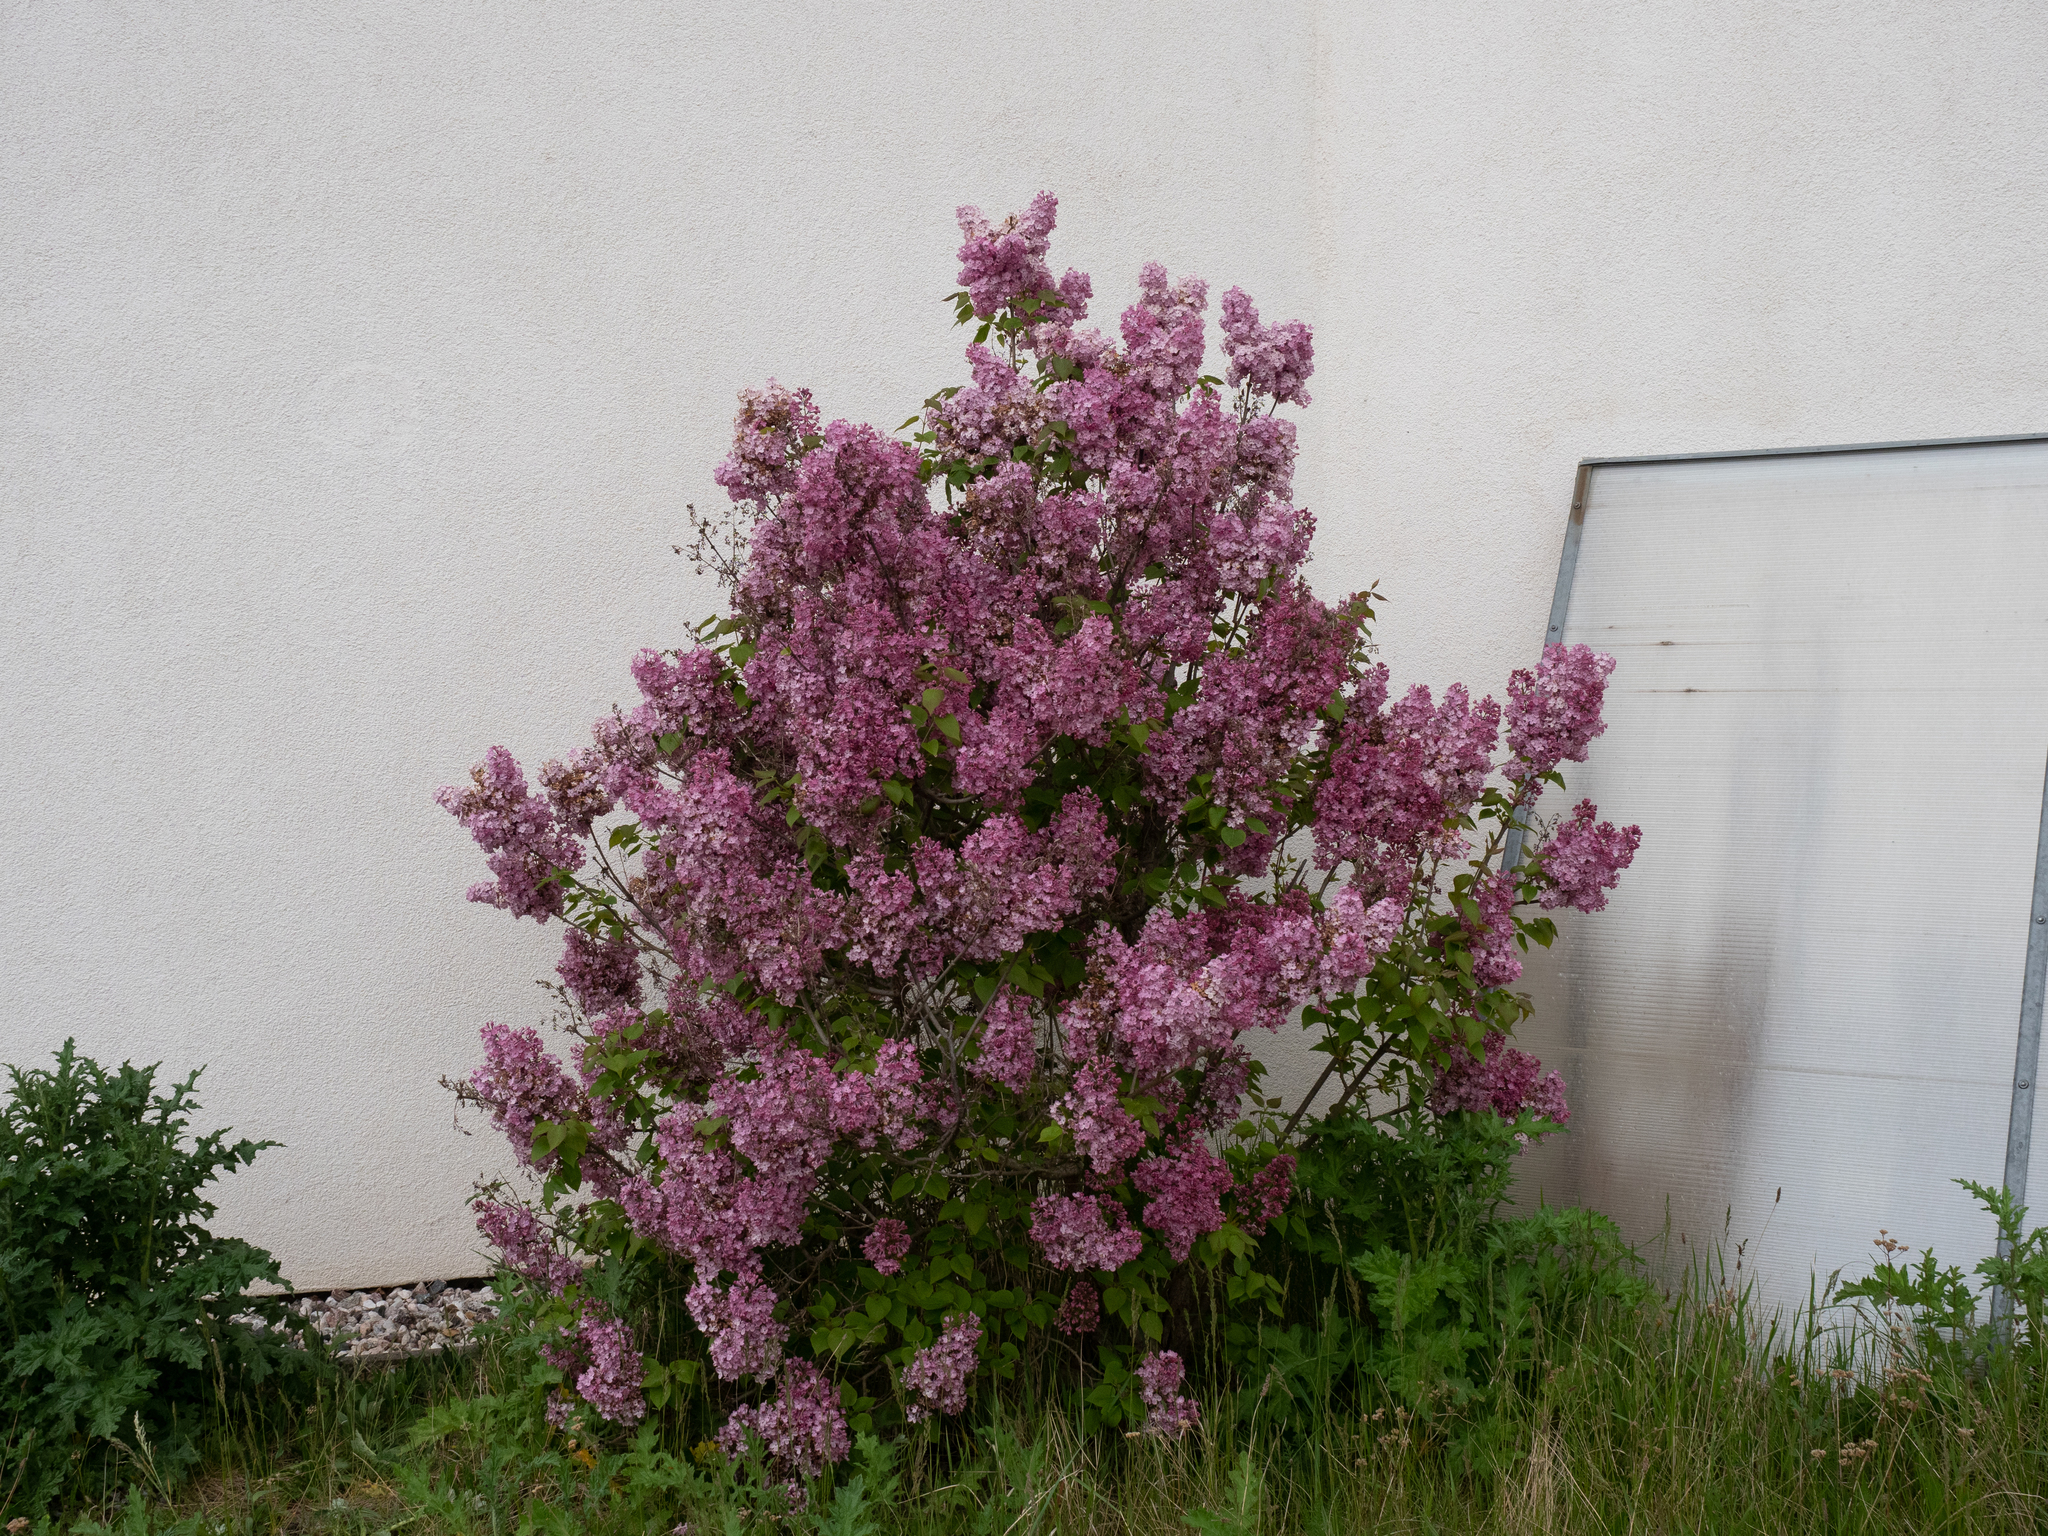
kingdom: Plantae
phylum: Tracheophyta
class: Magnoliopsida
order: Lamiales
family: Oleaceae
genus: Syringa
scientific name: Syringa vulgaris
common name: Common lilac
